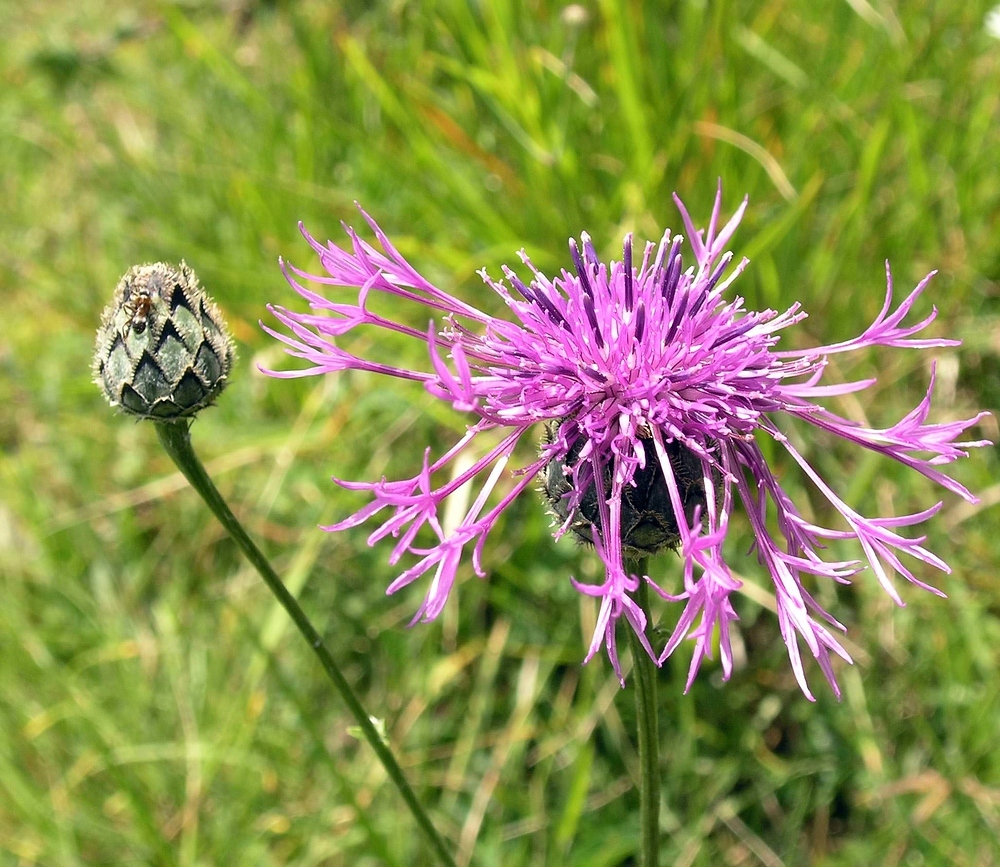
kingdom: Plantae
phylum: Tracheophyta
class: Magnoliopsida
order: Asterales
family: Asteraceae
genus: Centaurea
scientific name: Centaurea scabiosa
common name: Greater knapweed
